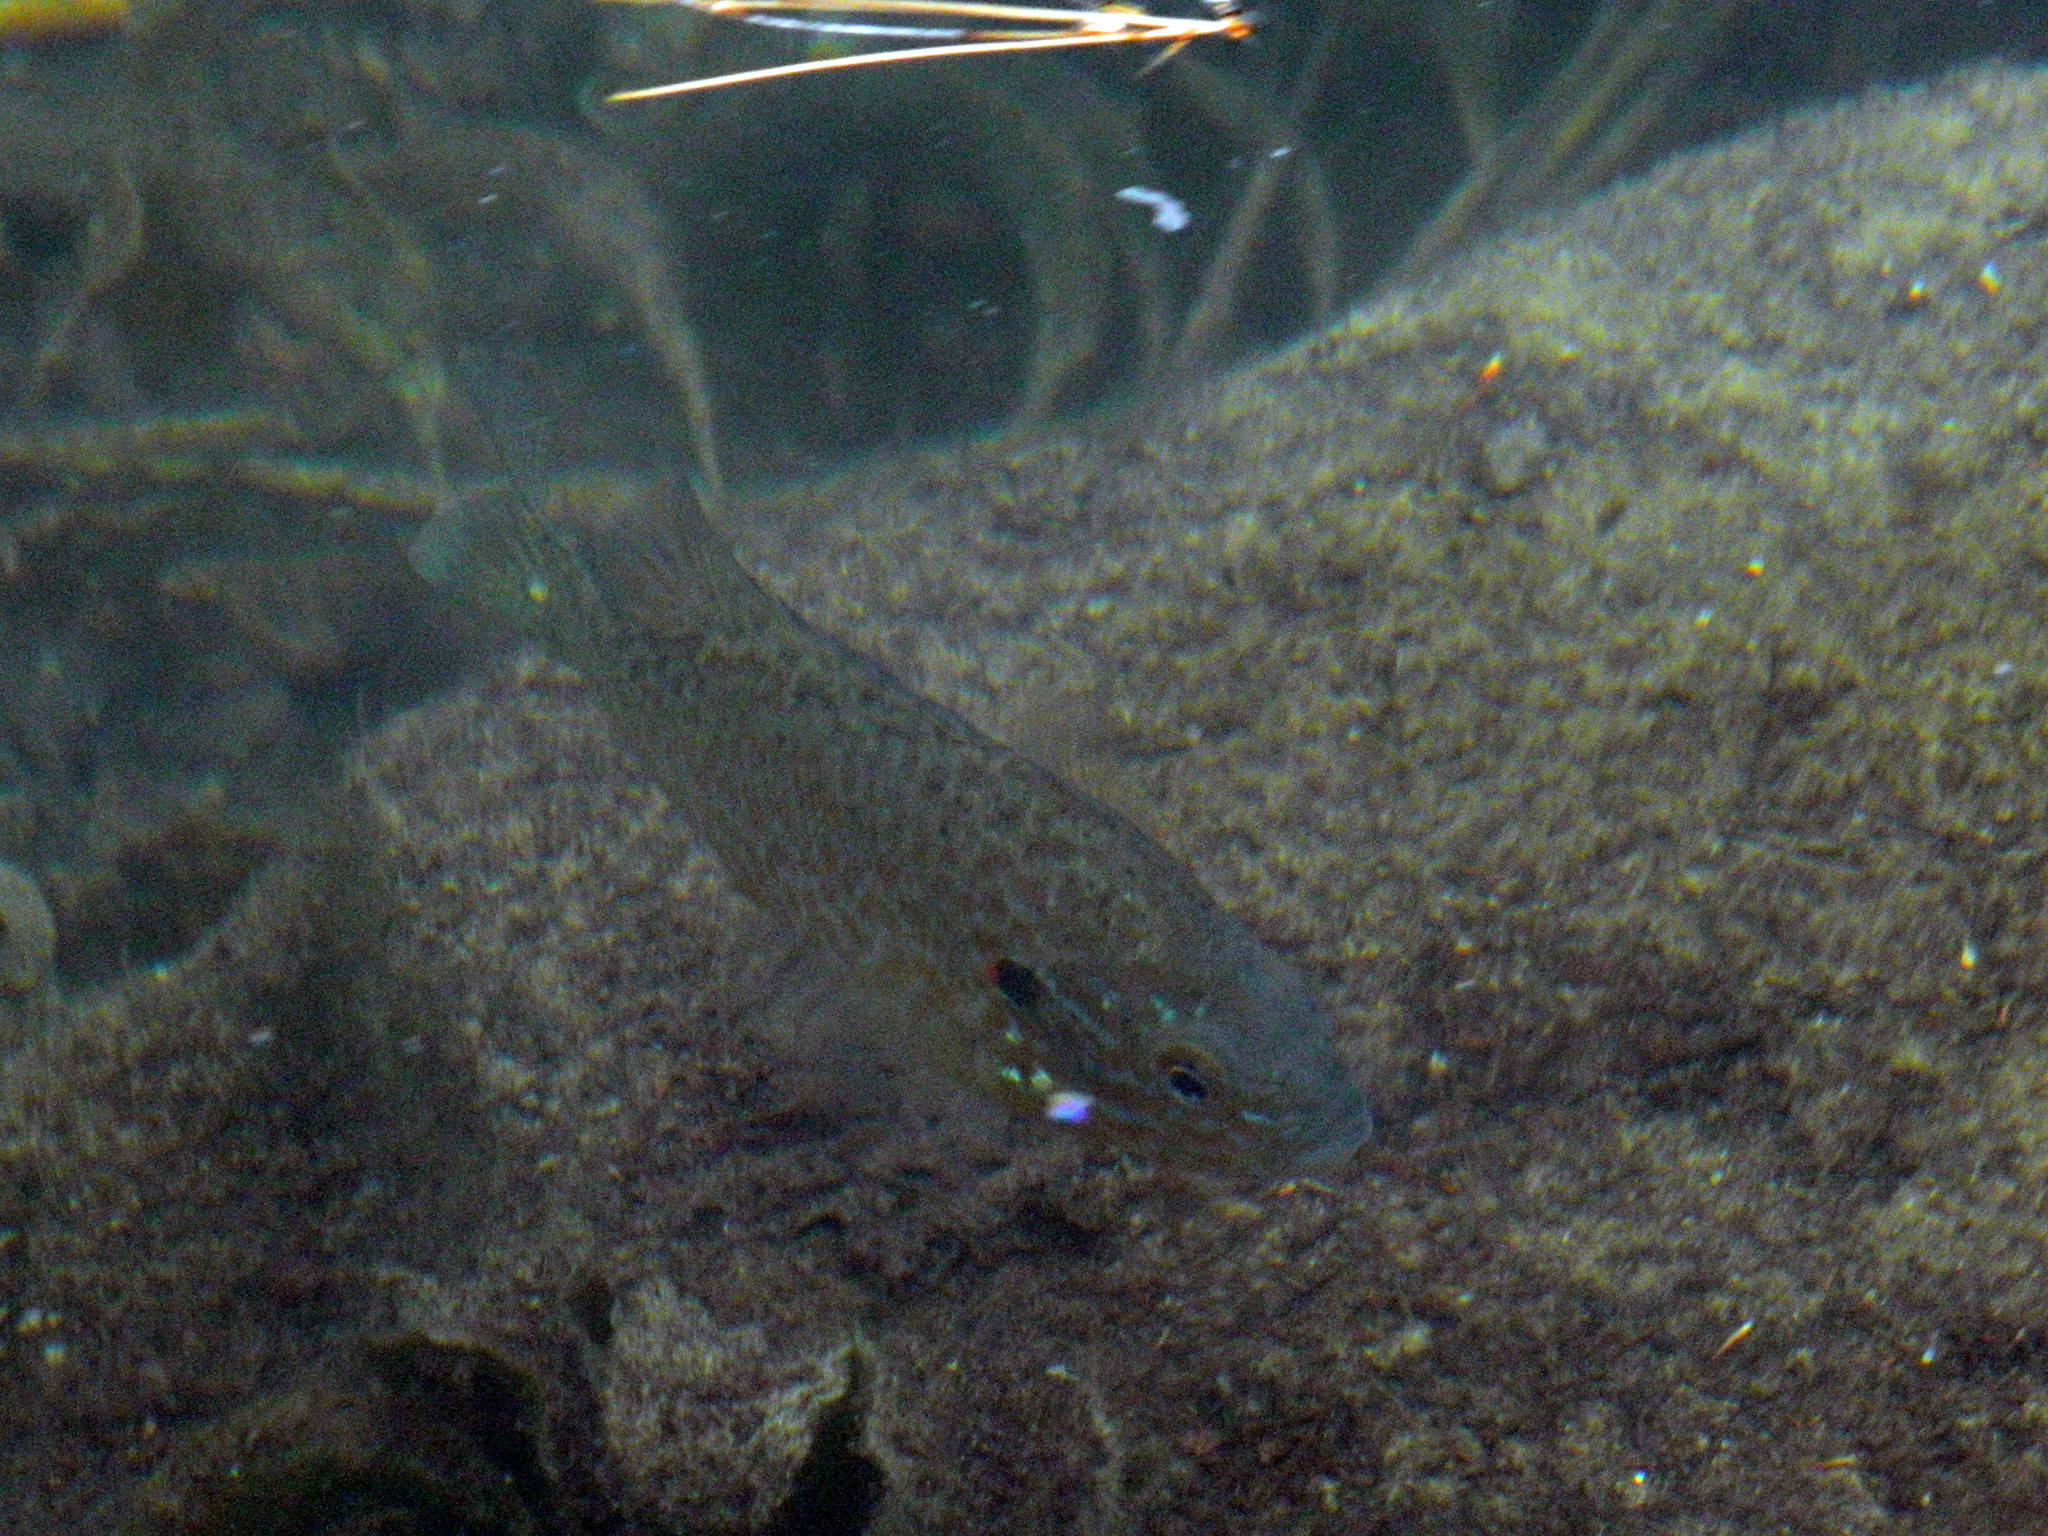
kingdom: Animalia
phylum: Chordata
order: Perciformes
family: Centrarchidae
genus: Lepomis
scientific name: Lepomis gibbosus
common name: Pumpkinseed
